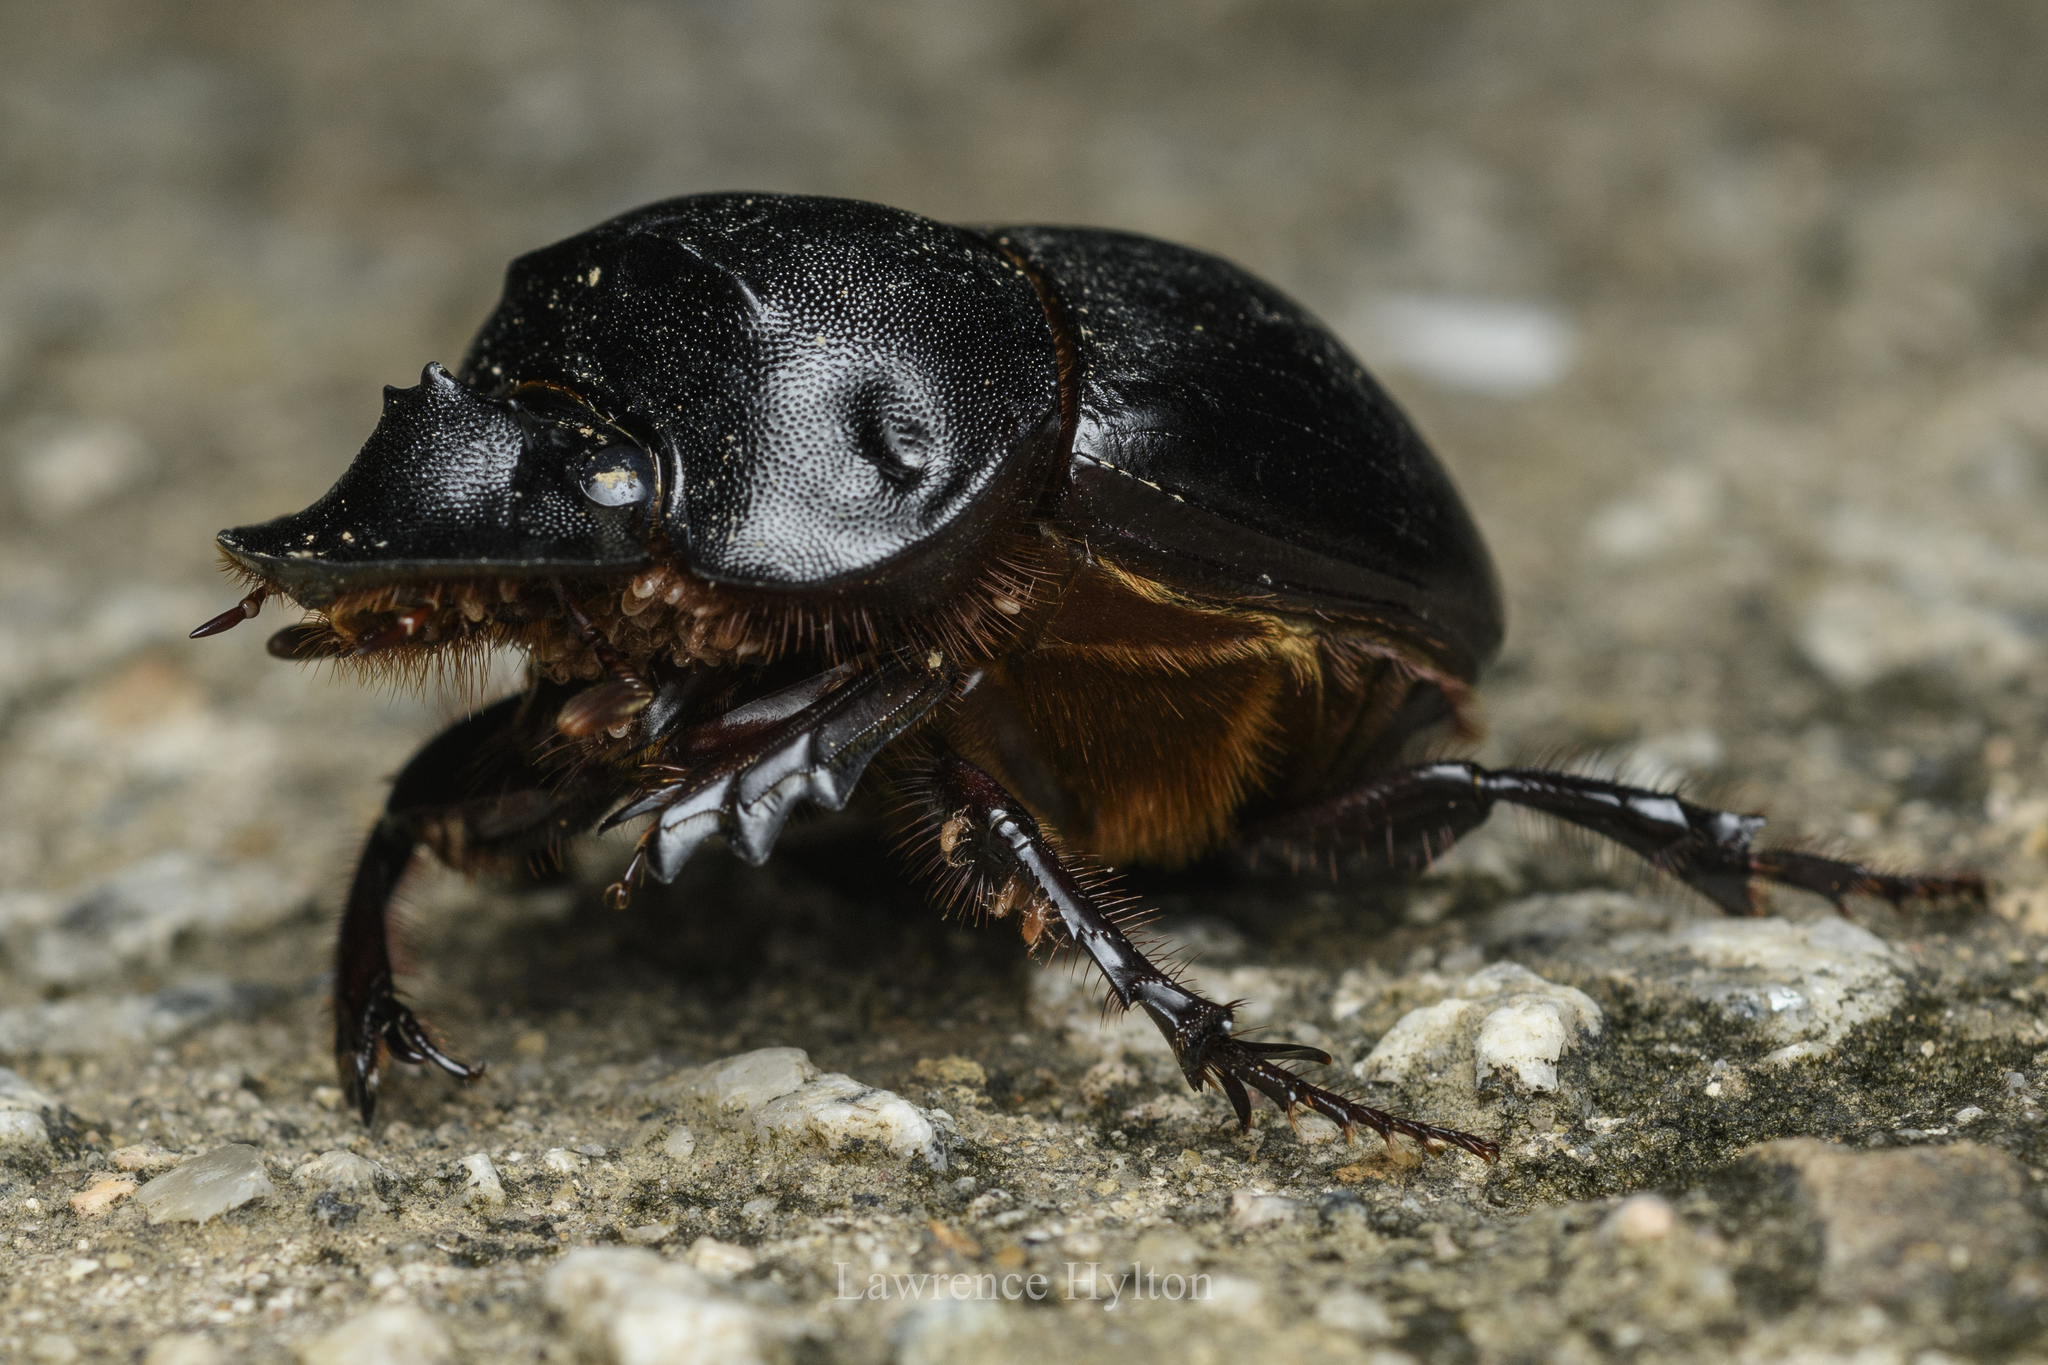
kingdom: Animalia
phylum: Arthropoda
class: Insecta
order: Coleoptera
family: Scarabaeidae
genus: Catharsius
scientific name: Catharsius molossus
